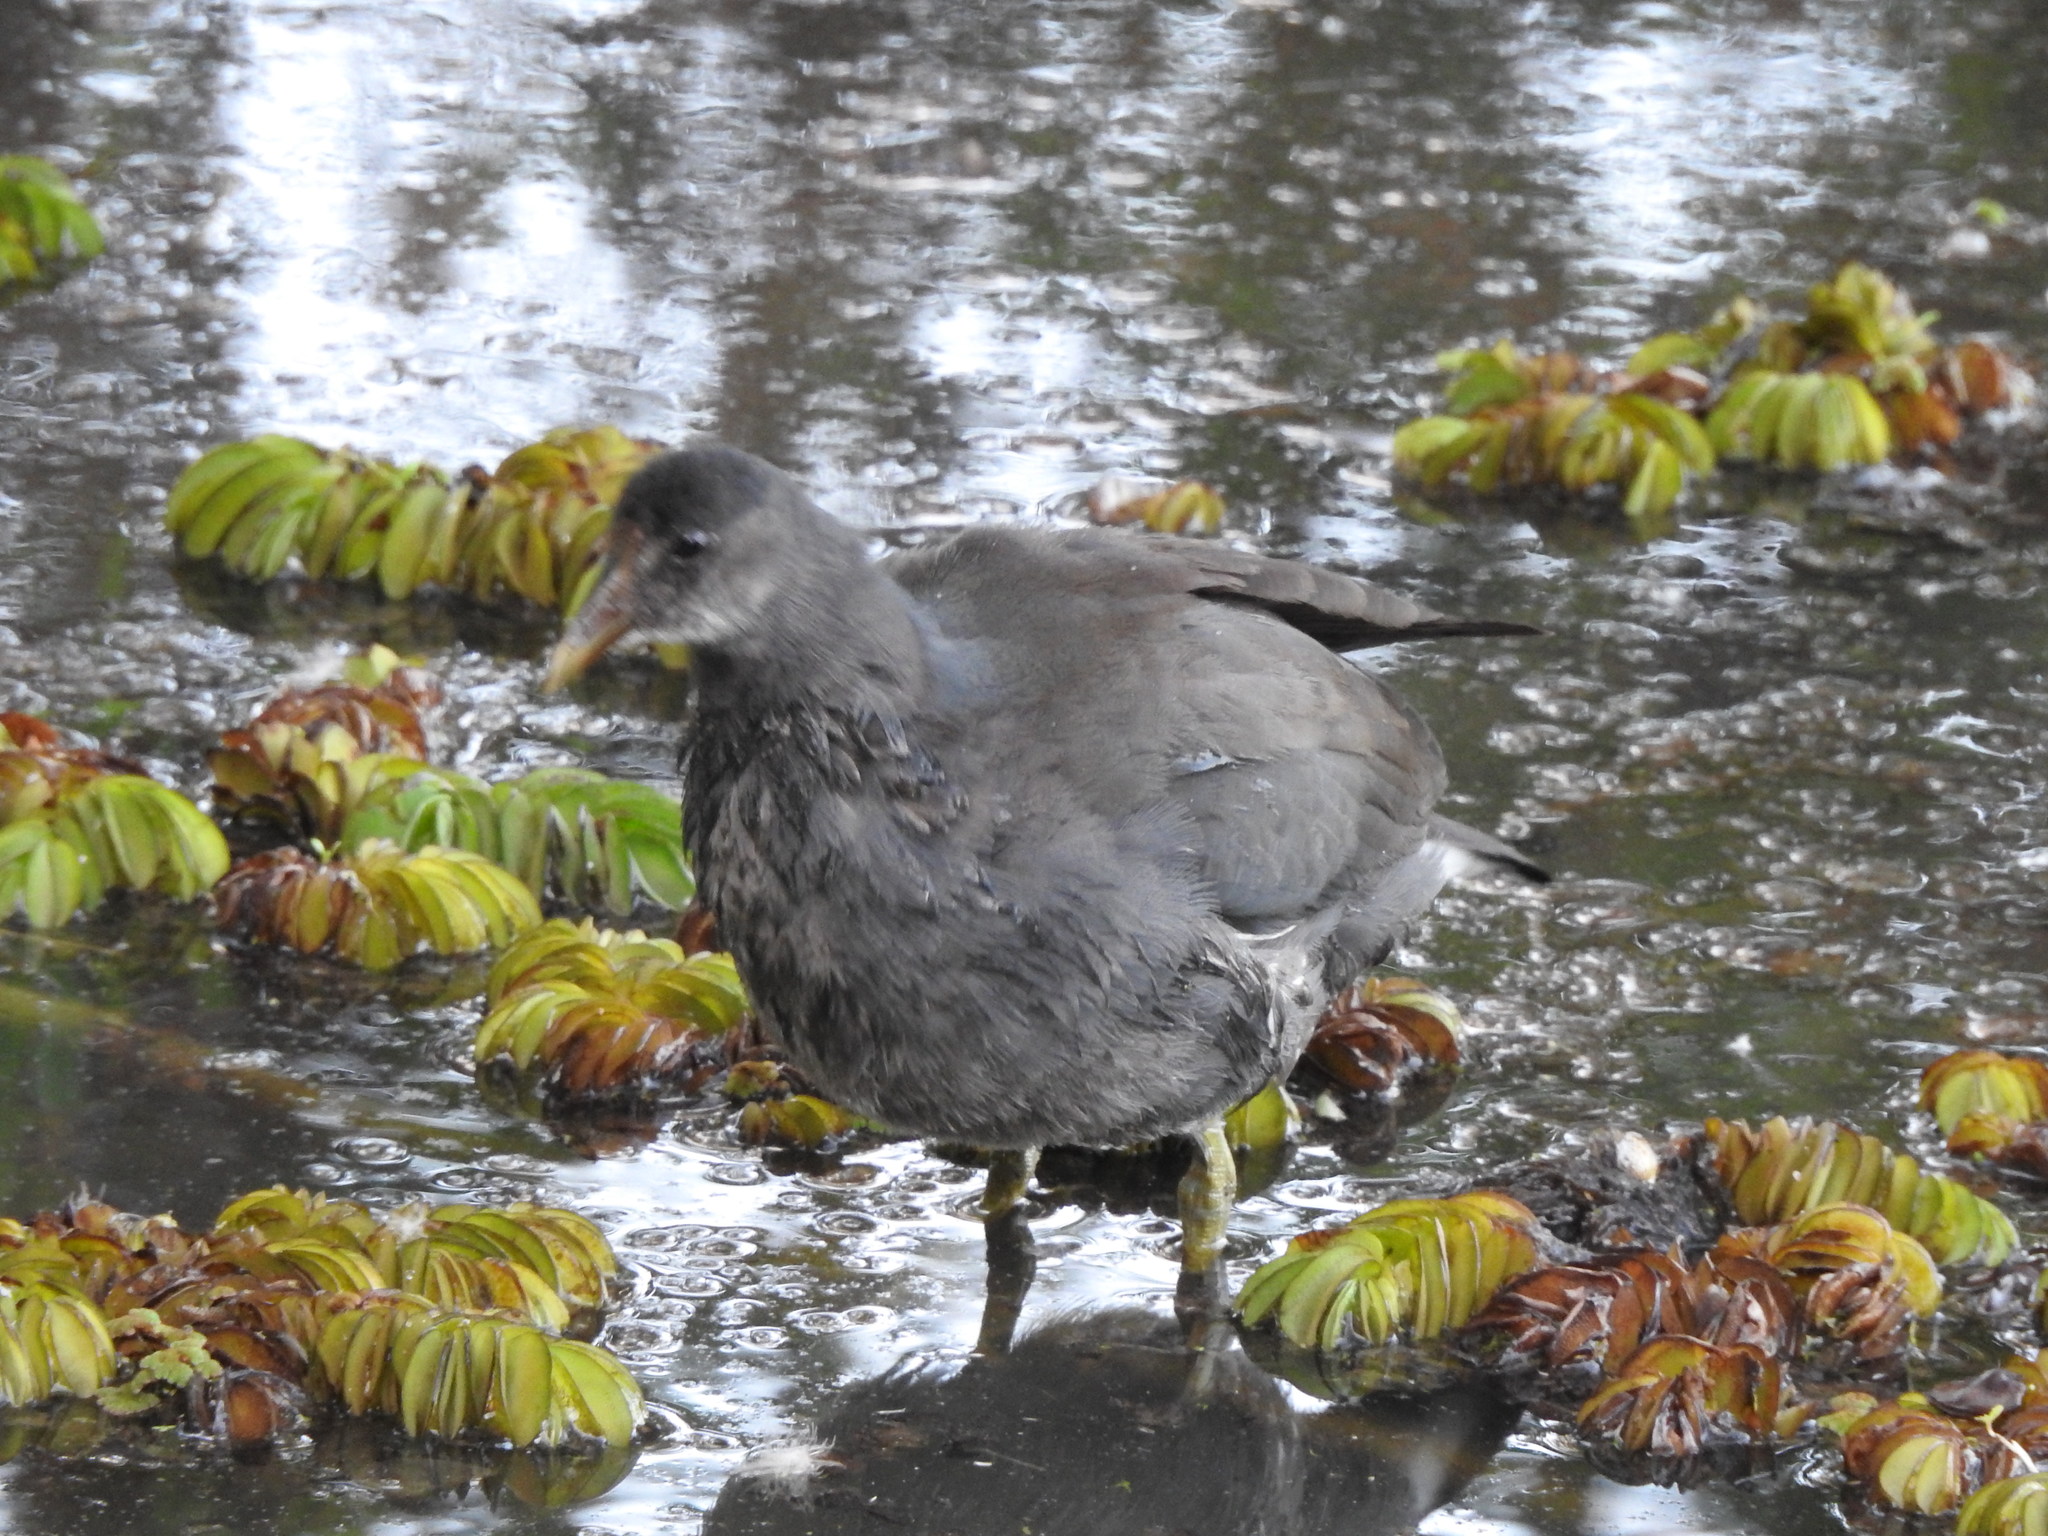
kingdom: Animalia
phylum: Chordata
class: Aves
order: Gruiformes
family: Rallidae
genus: Gallinula
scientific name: Gallinula chloropus
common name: Common moorhen
